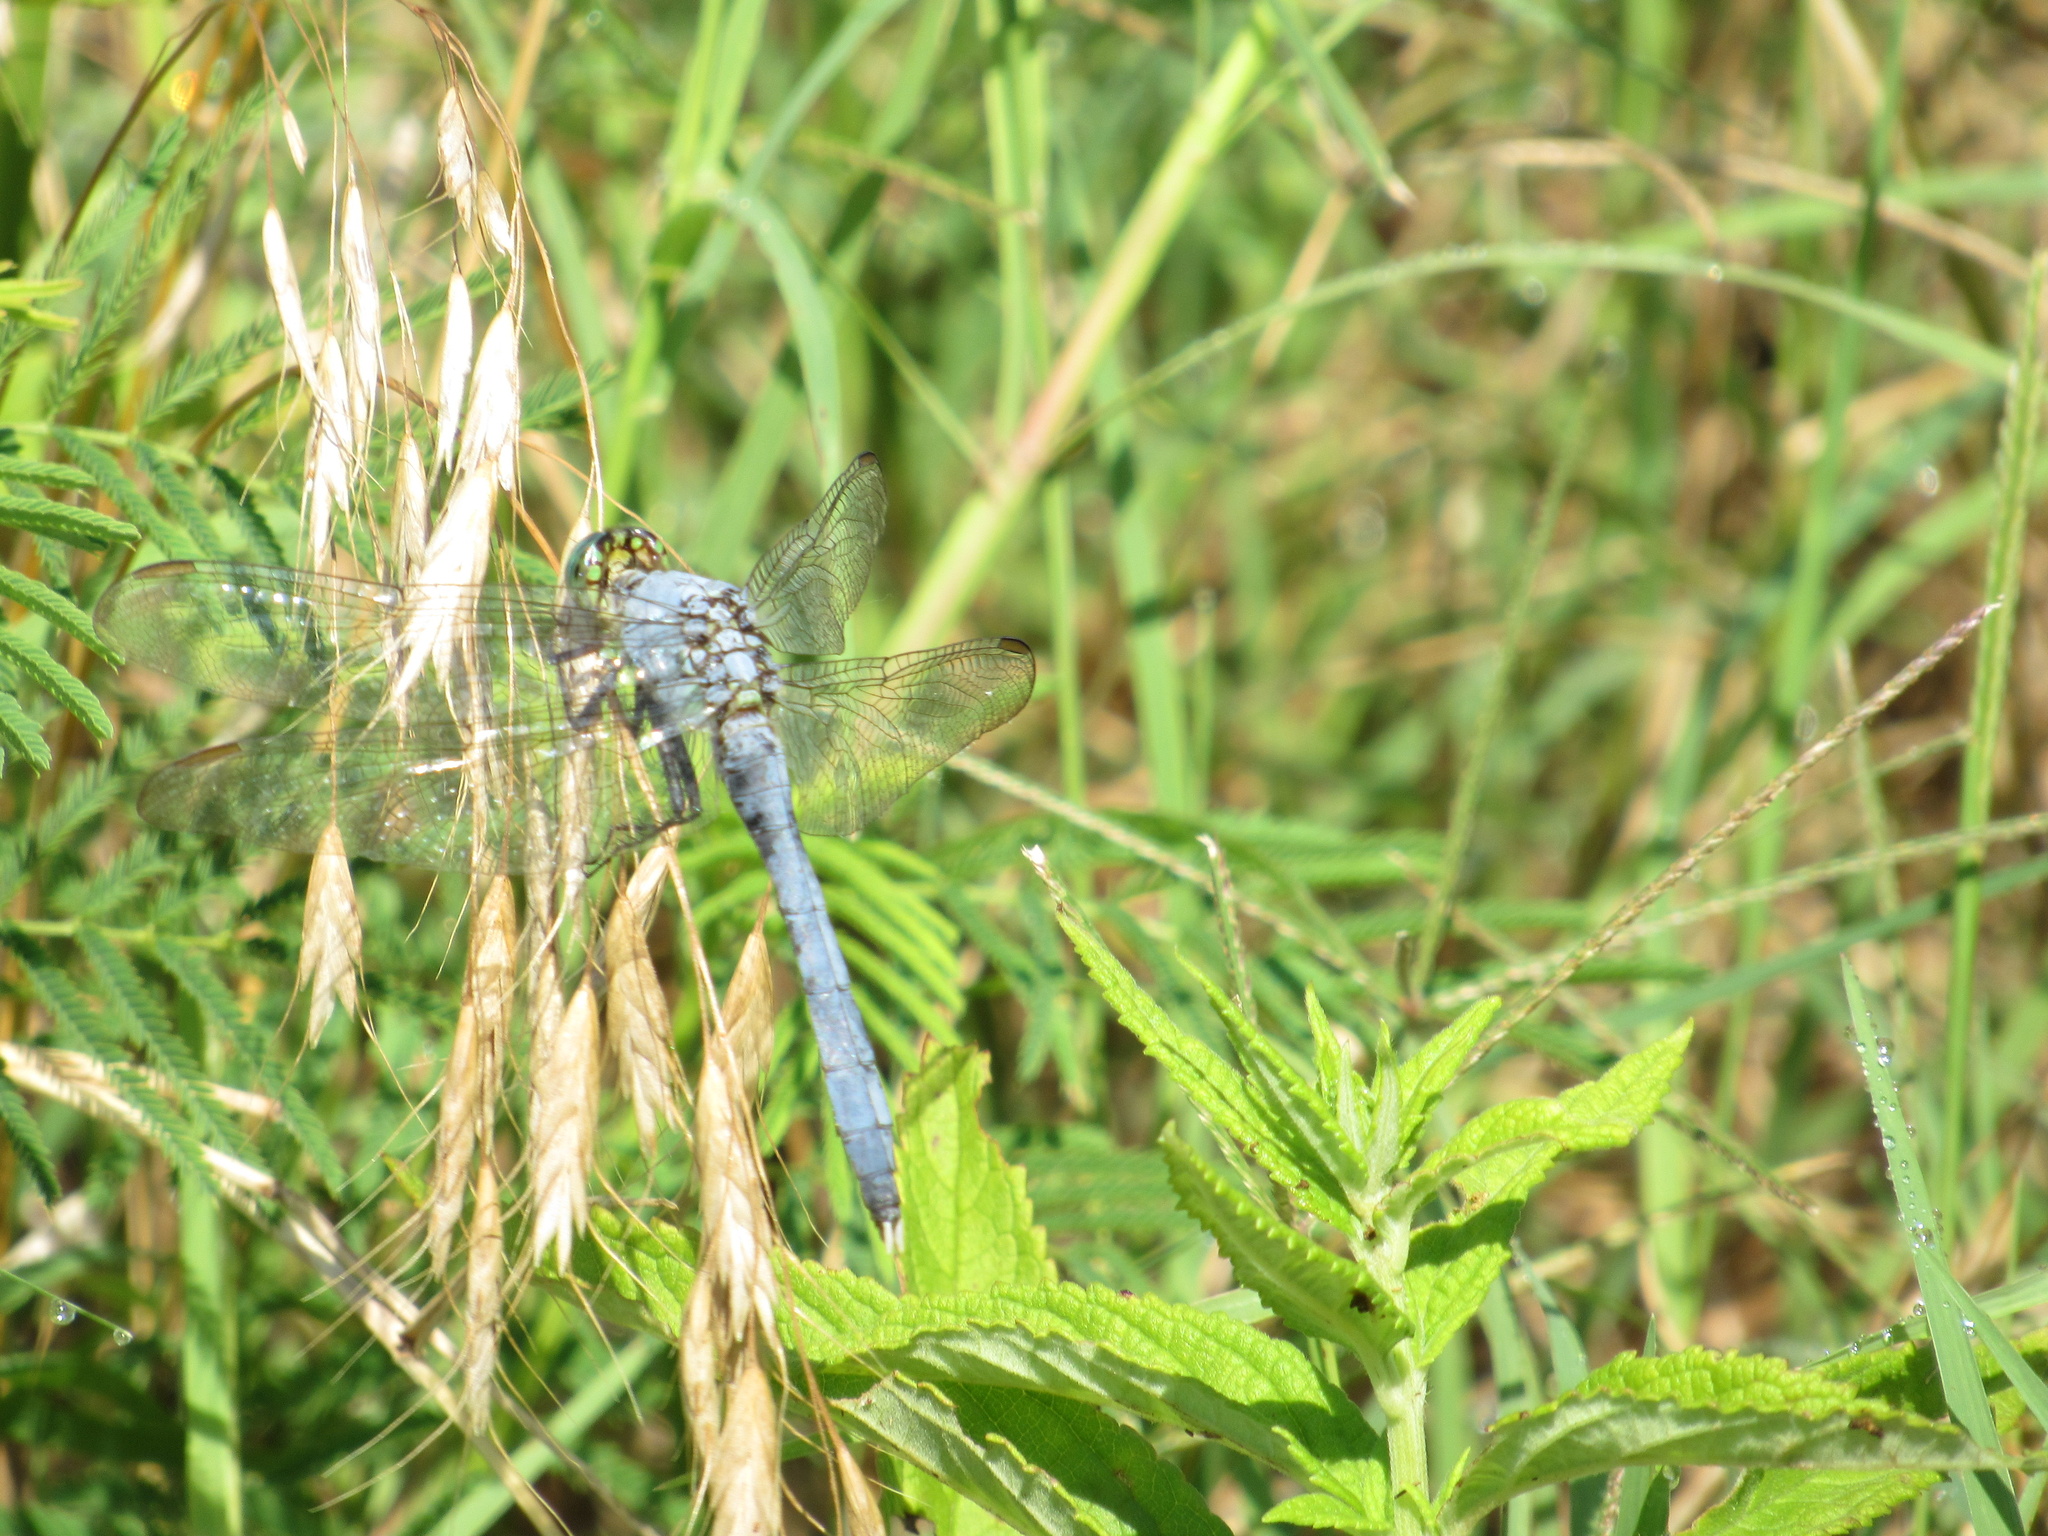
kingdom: Animalia
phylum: Arthropoda
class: Insecta
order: Odonata
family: Libellulidae
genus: Erythemis
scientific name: Erythemis simplicicollis
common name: Eastern pondhawk
